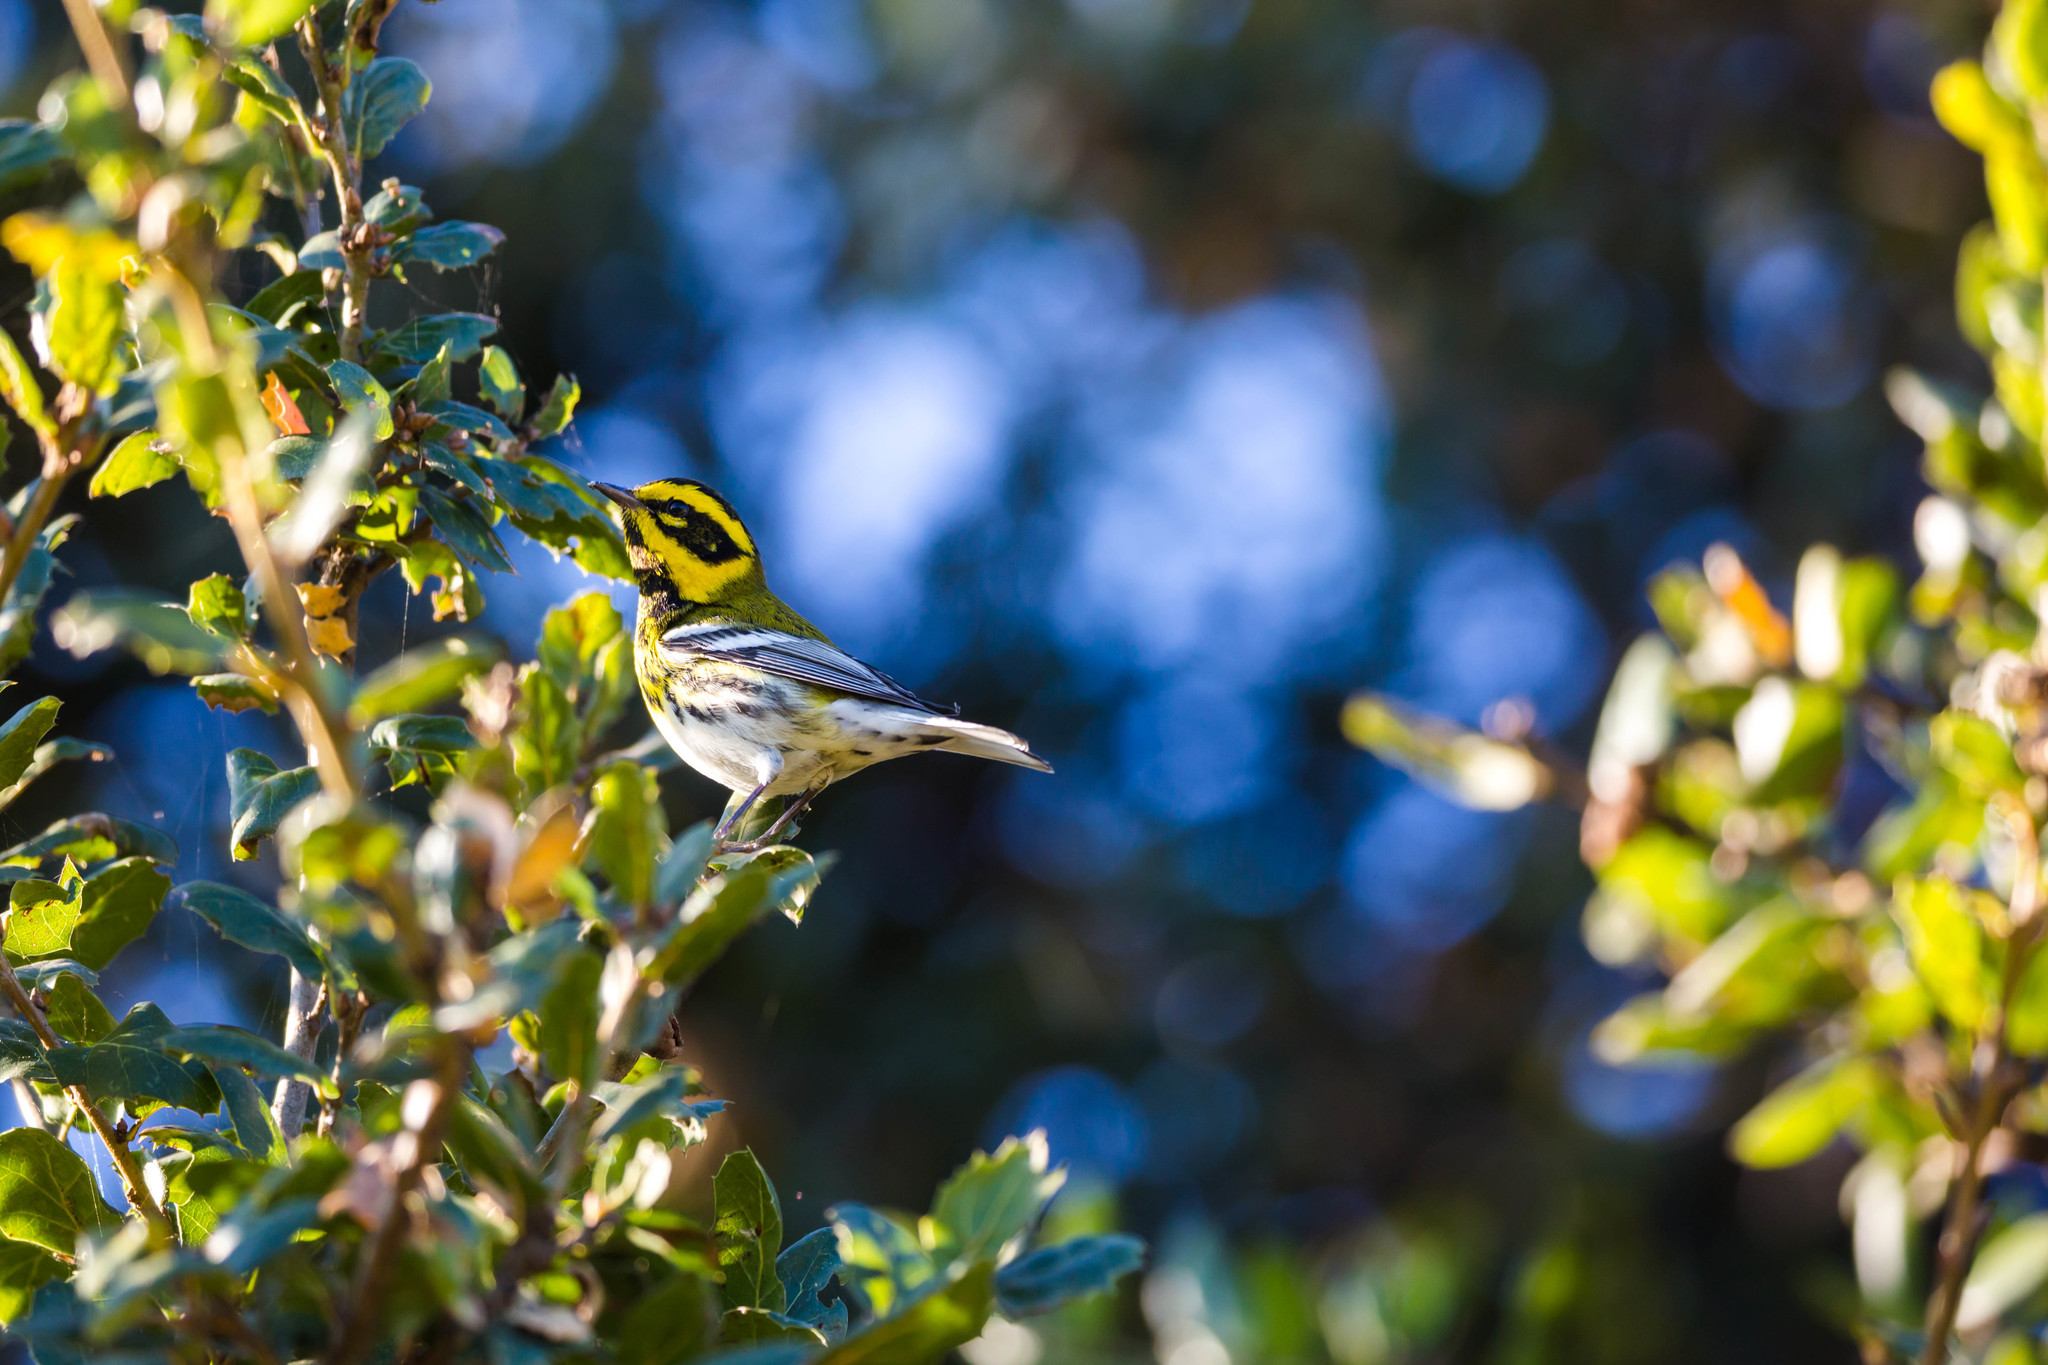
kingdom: Animalia
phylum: Chordata
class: Aves
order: Passeriformes
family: Parulidae
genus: Setophaga
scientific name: Setophaga townsendi
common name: Townsend's warbler
